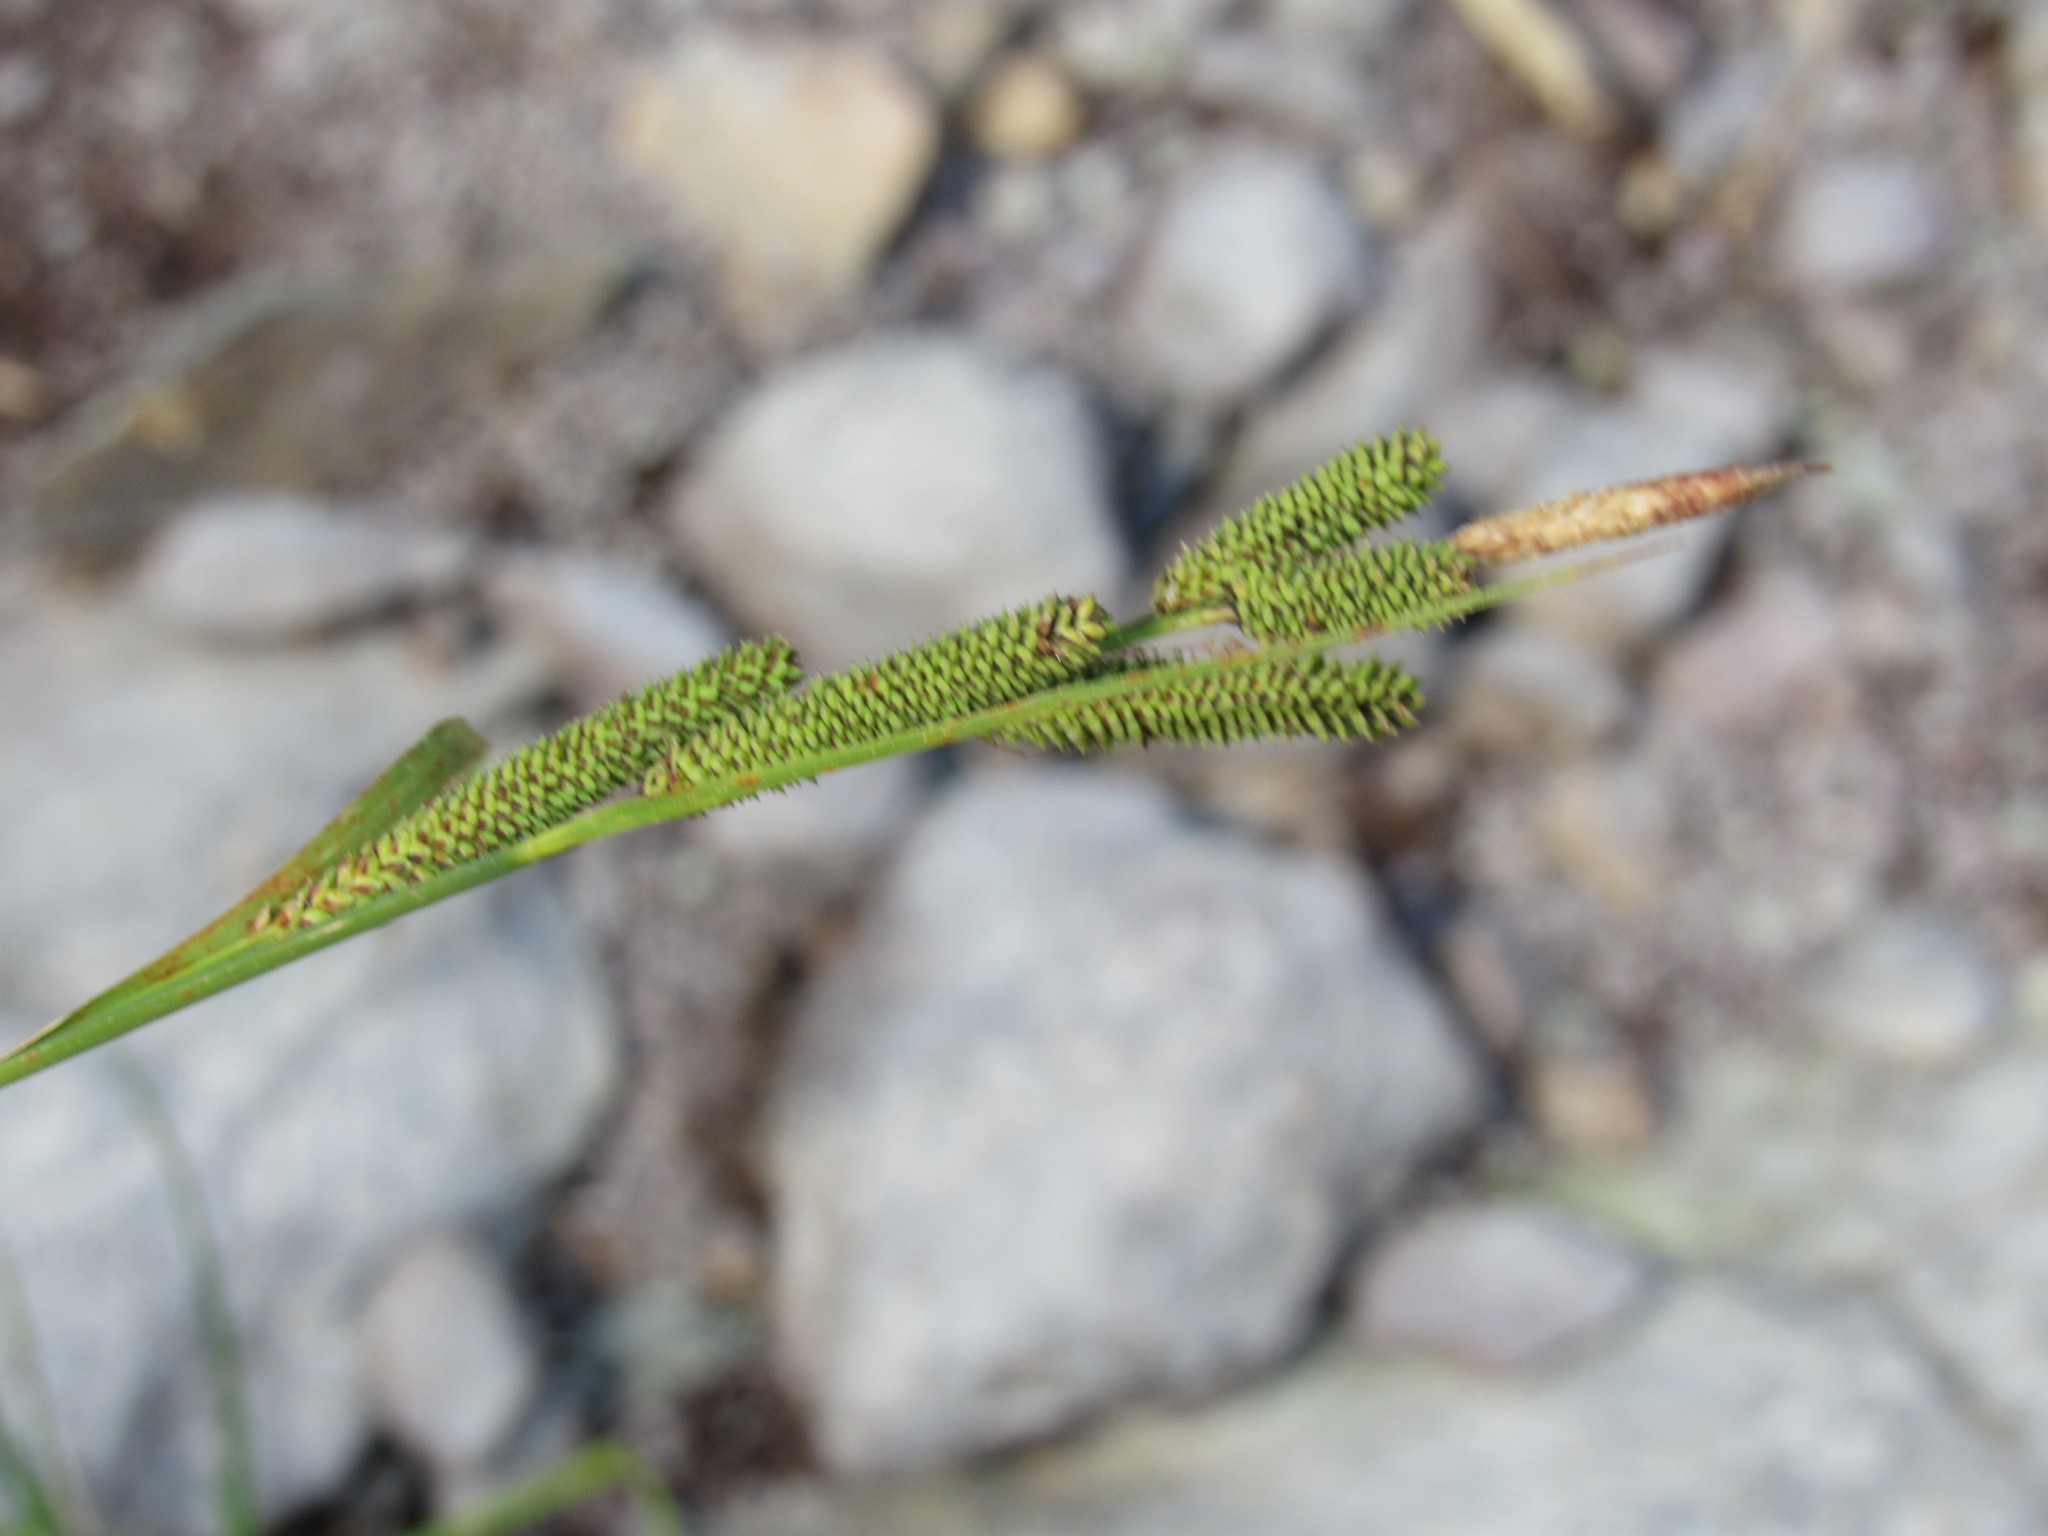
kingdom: Plantae
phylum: Tracheophyta
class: Liliopsida
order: Poales
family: Cyperaceae
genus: Carex
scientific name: Carex aquatilis
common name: Water sedge
